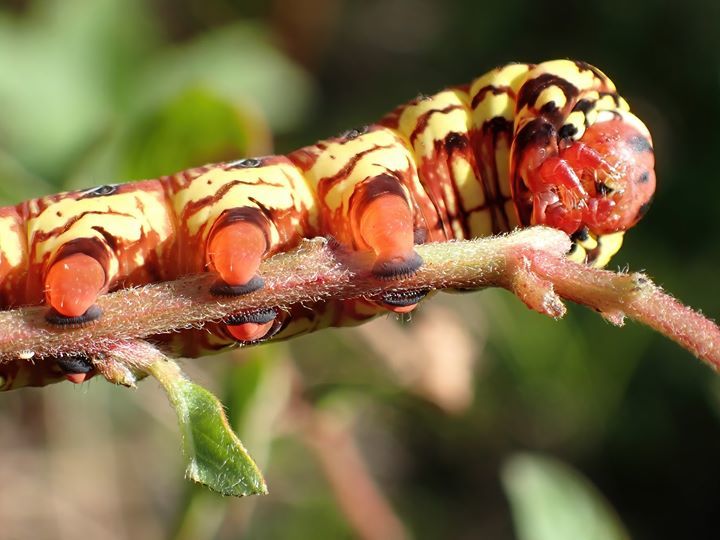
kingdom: Animalia
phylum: Arthropoda
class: Insecta
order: Lepidoptera
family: Sphingidae
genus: Eumorpha
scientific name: Eumorpha fasciatus
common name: Banded sphinx
